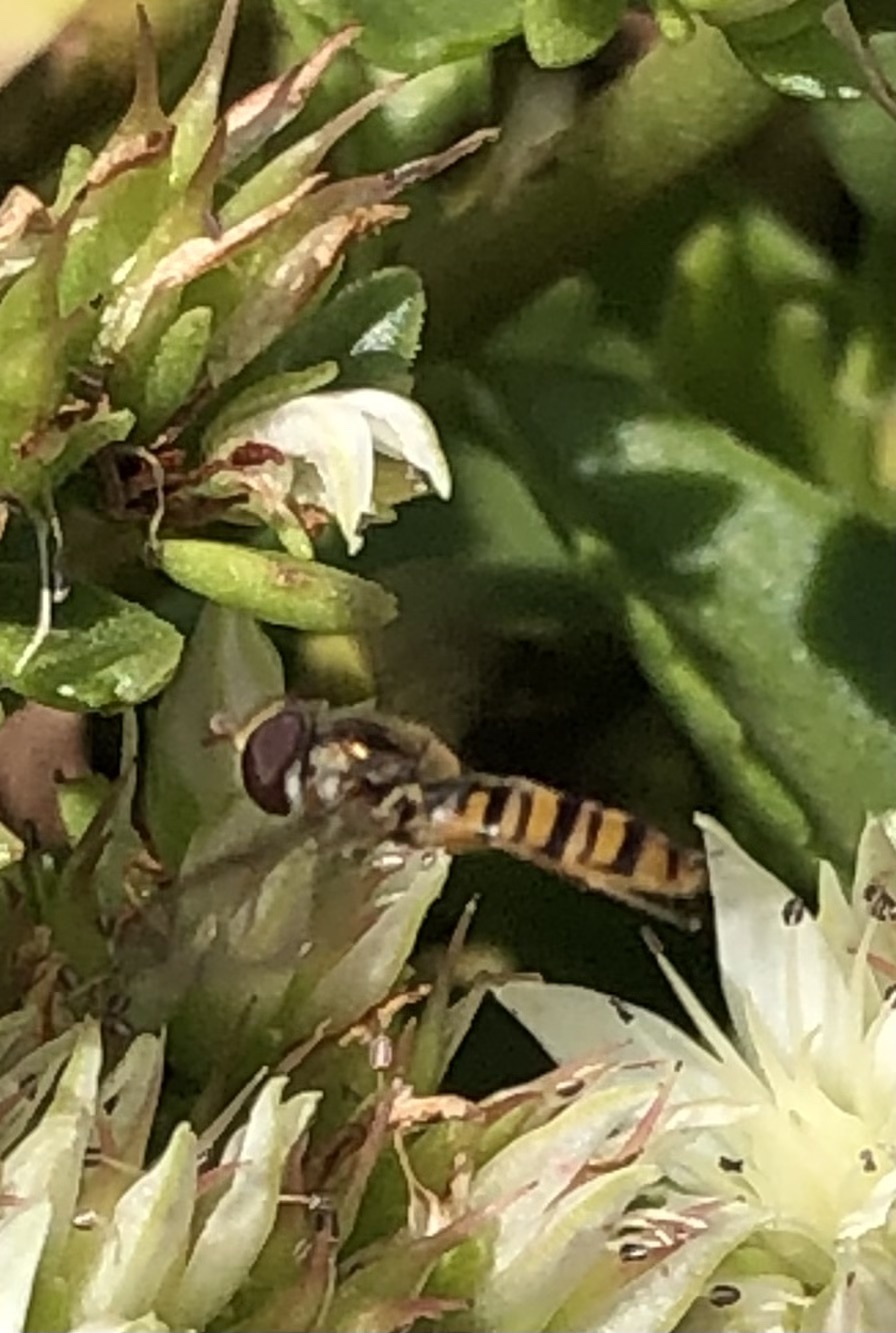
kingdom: Animalia
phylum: Arthropoda
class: Insecta
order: Diptera
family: Syrphidae
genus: Episyrphus
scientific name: Episyrphus balteatus
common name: Marmalade hoverfly
